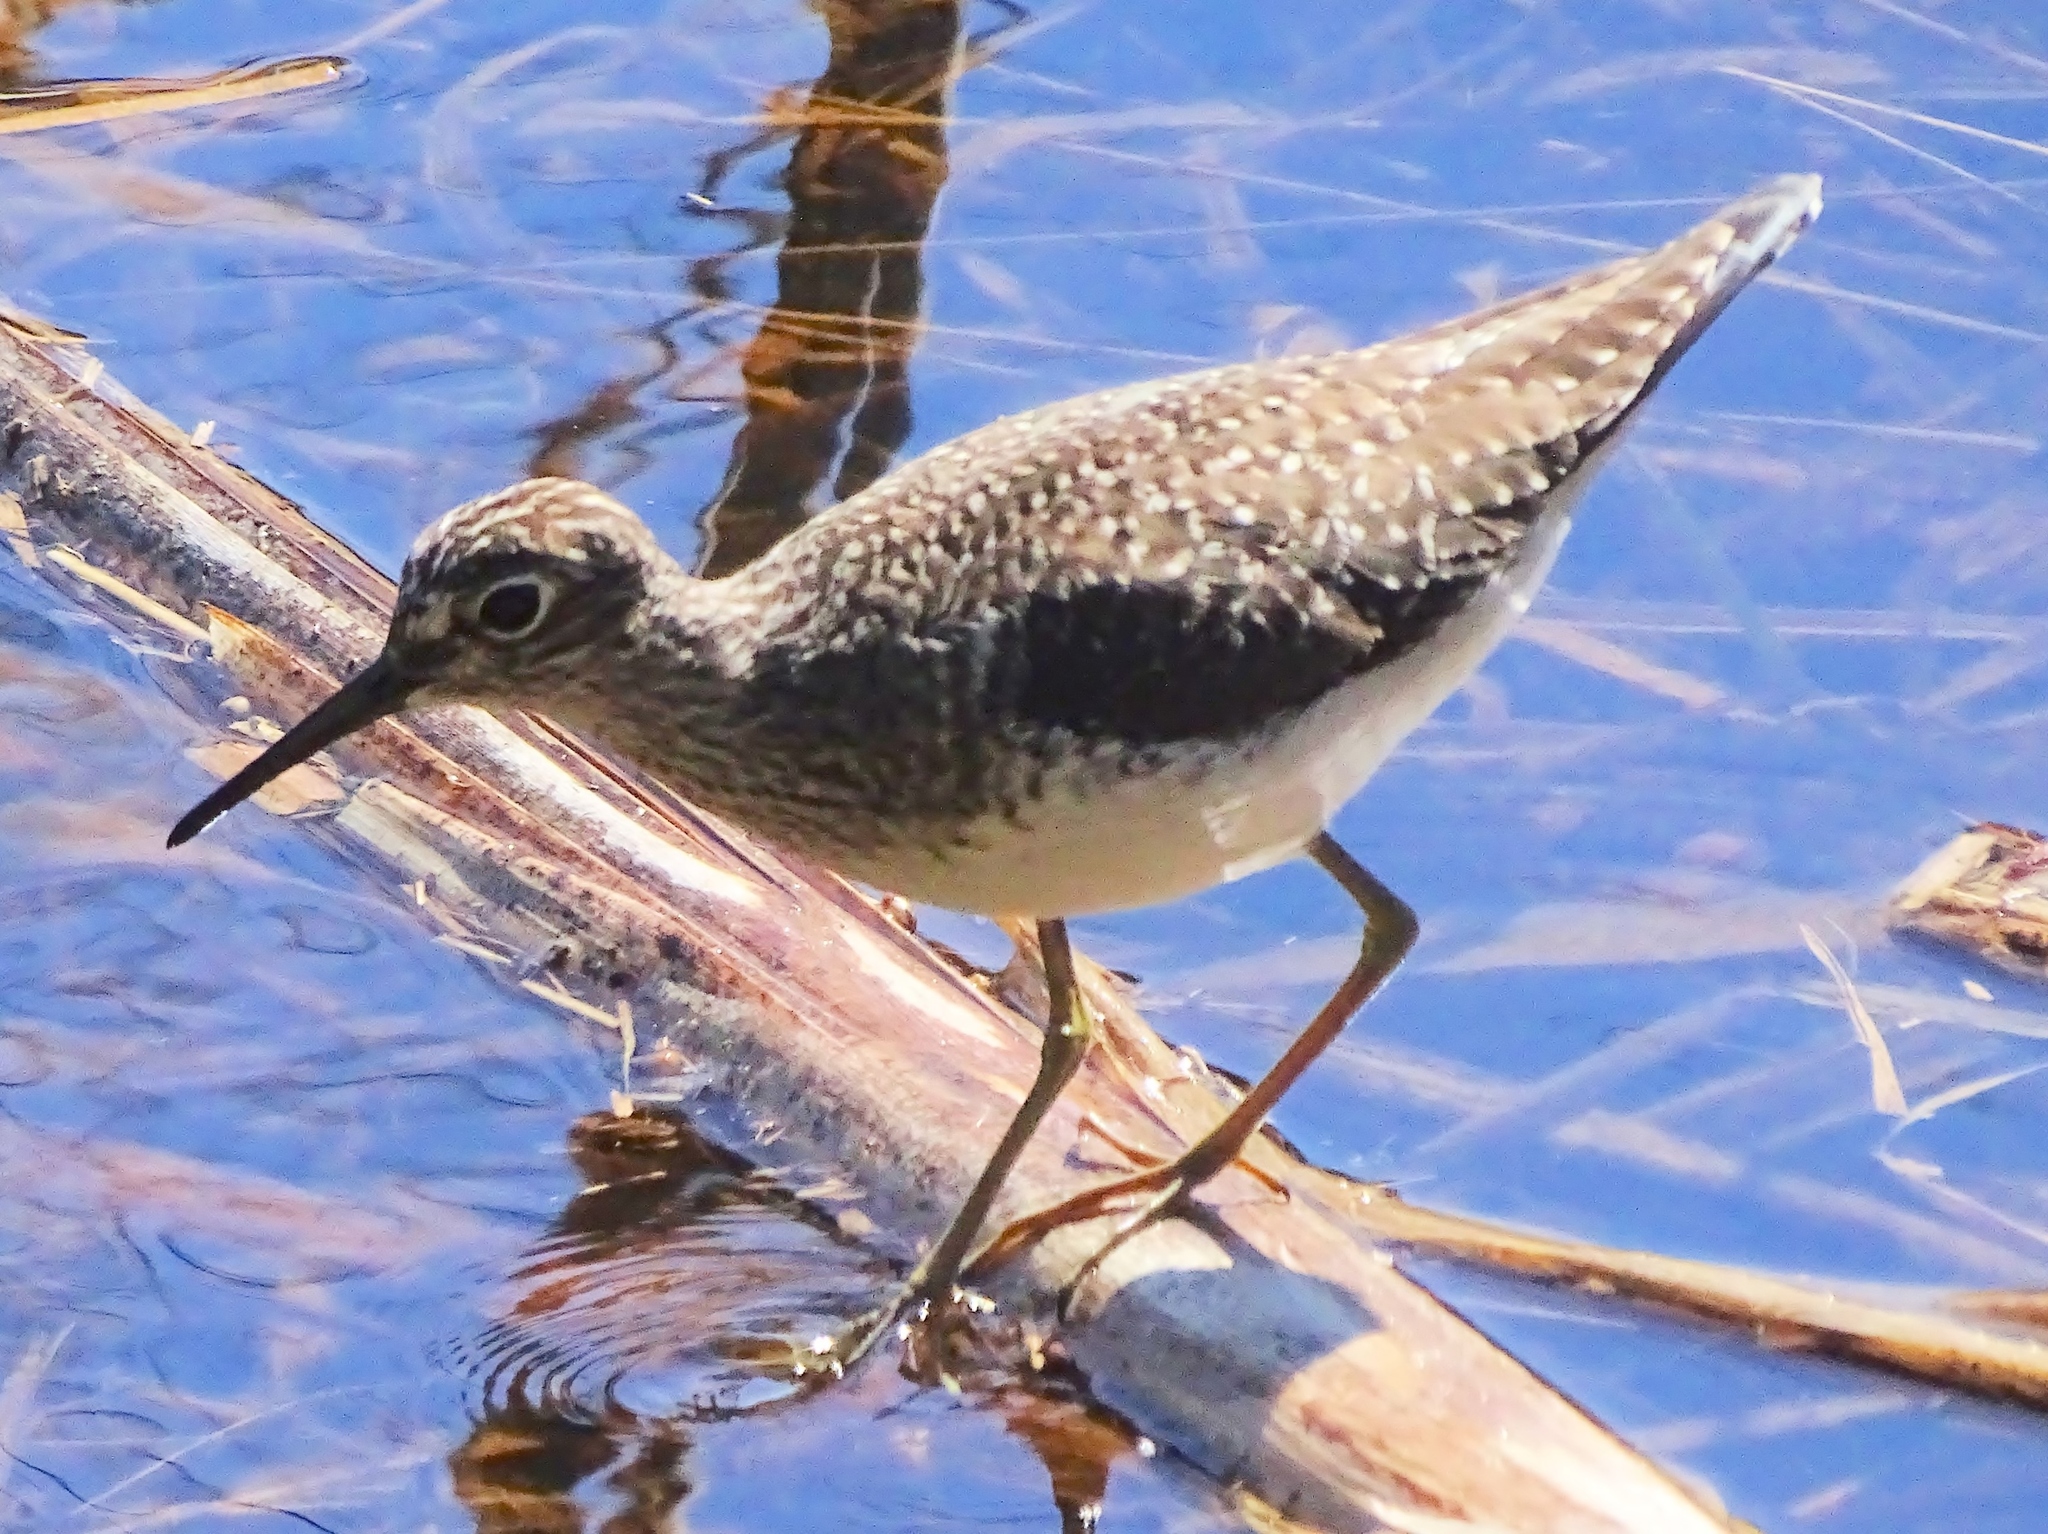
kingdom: Animalia
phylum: Chordata
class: Aves
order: Charadriiformes
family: Scolopacidae
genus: Tringa
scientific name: Tringa solitaria
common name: Solitary sandpiper
